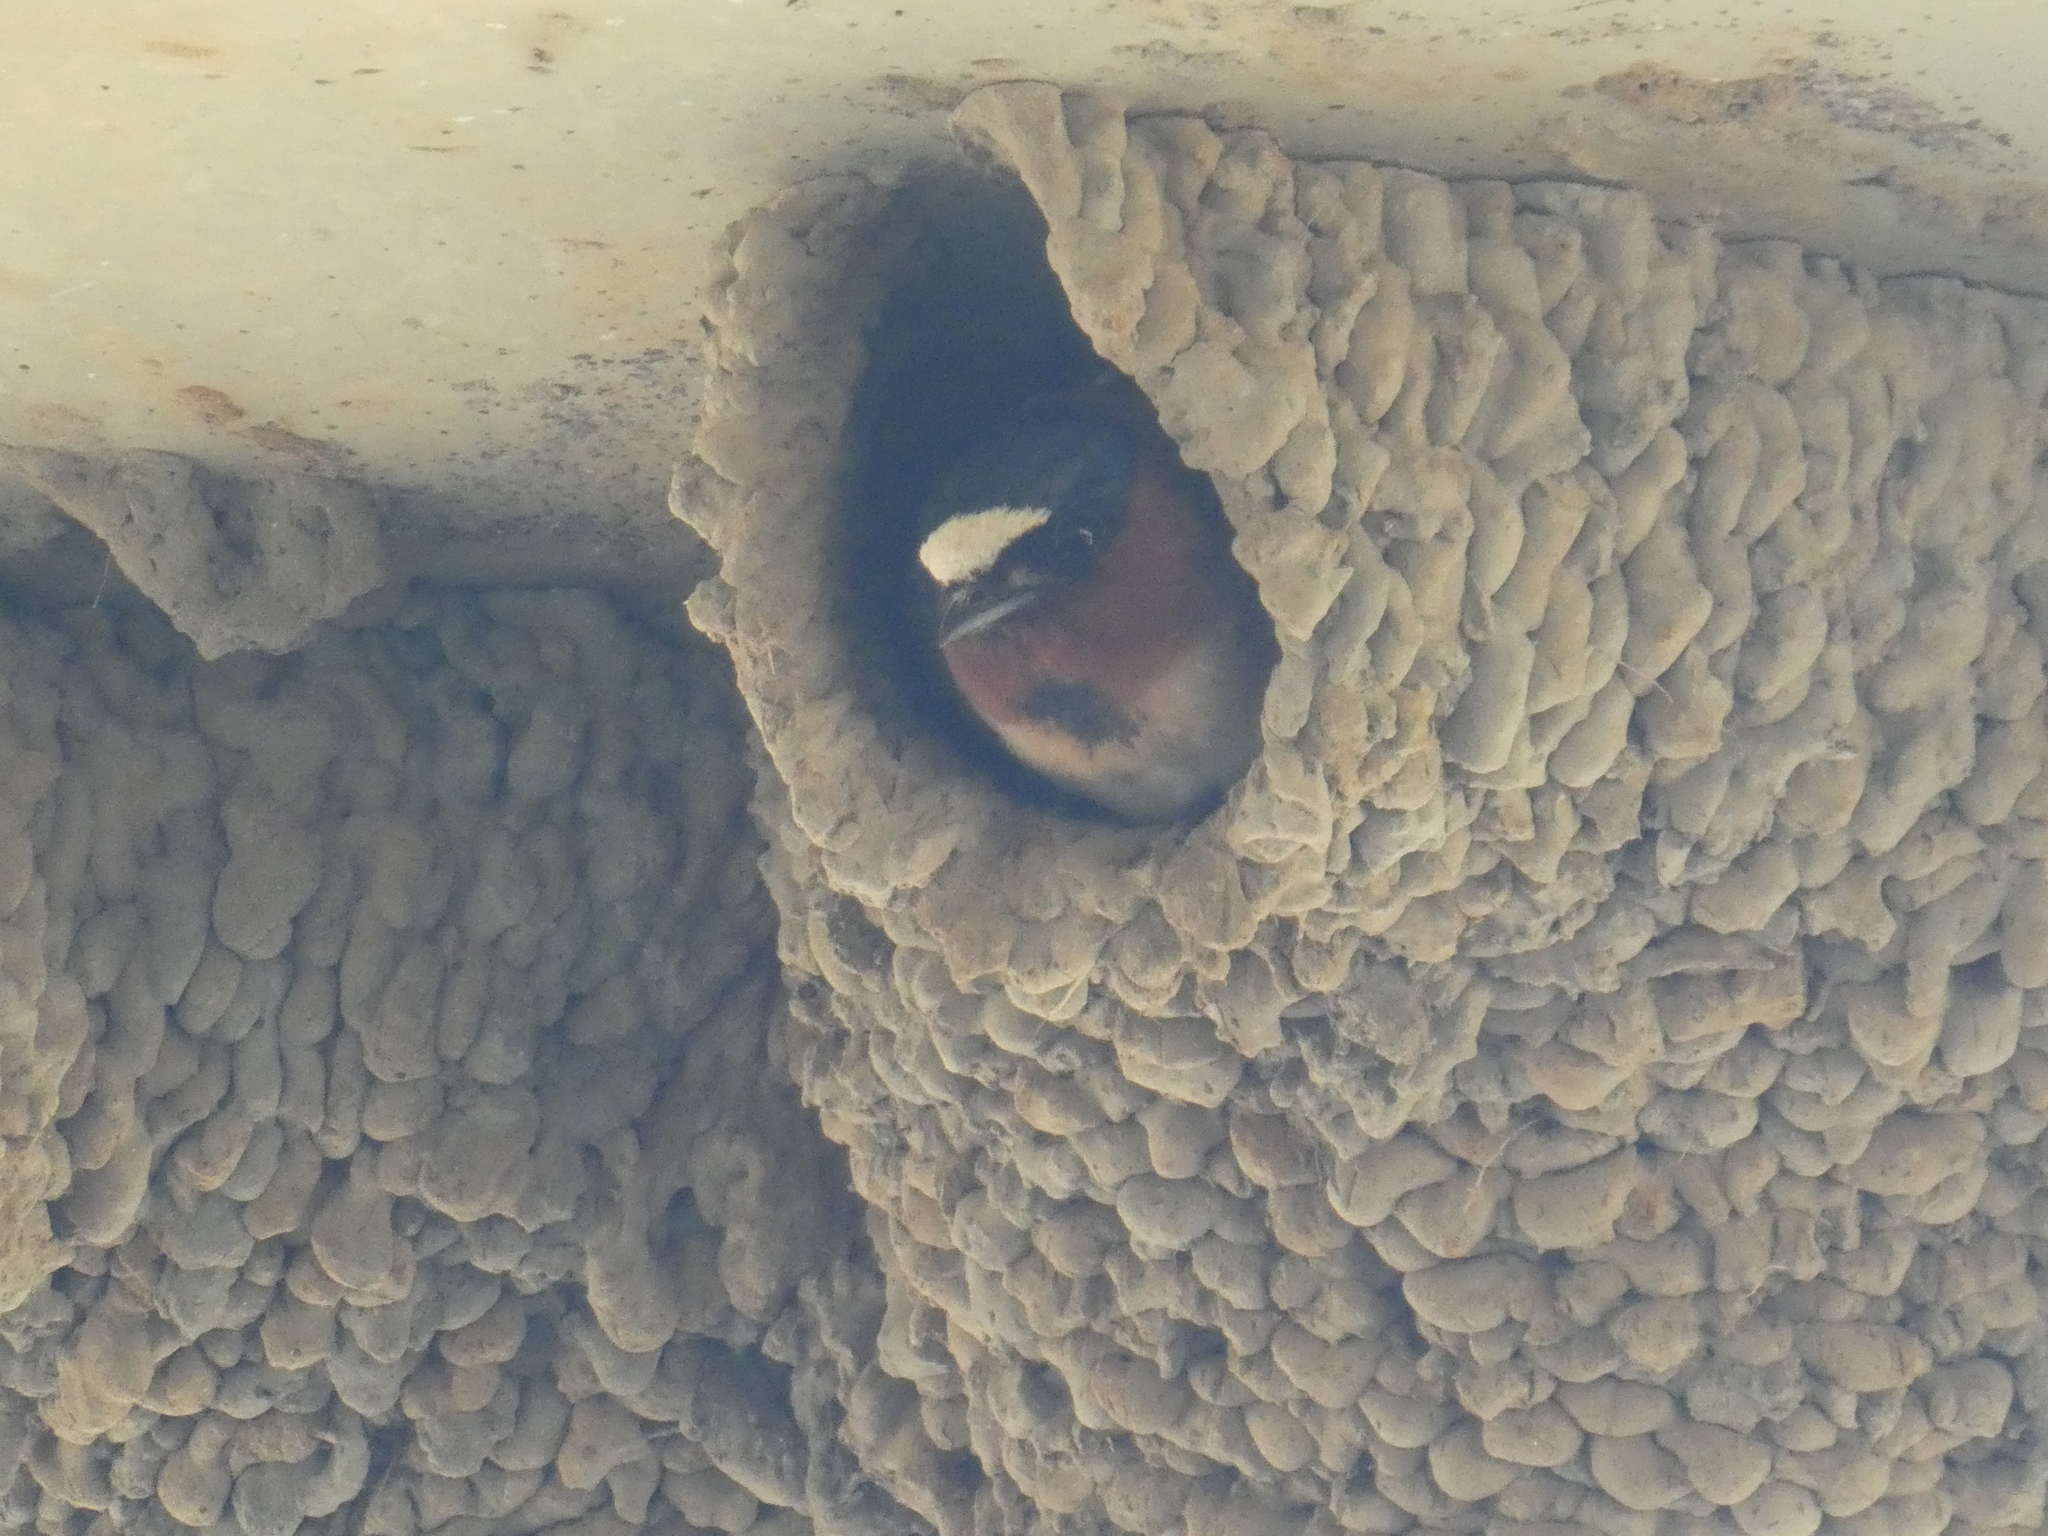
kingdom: Animalia
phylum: Chordata
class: Aves
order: Passeriformes
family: Hirundinidae
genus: Petrochelidon
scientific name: Petrochelidon pyrrhonota
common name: American cliff swallow
